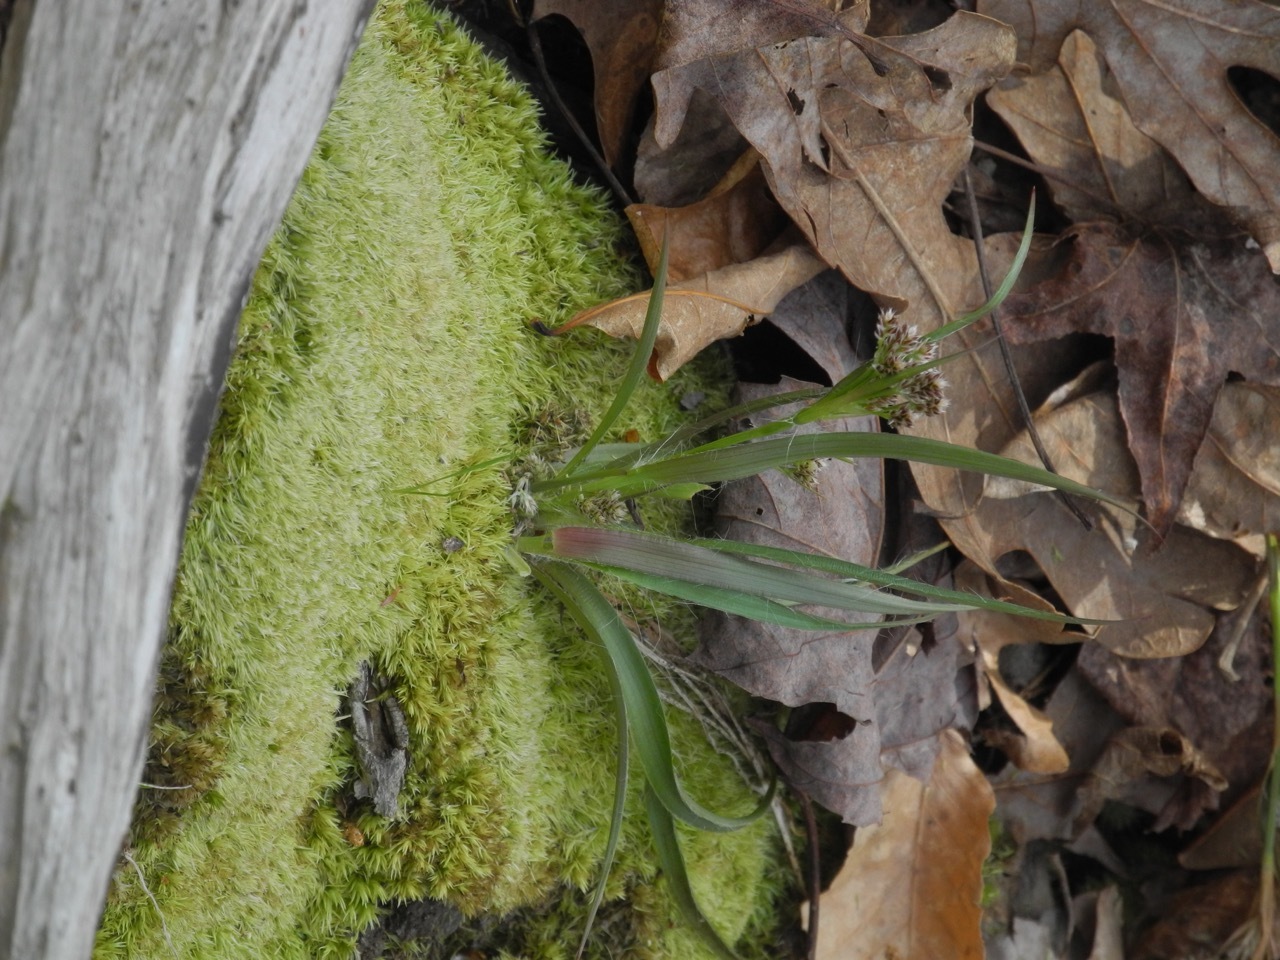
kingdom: Plantae
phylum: Tracheophyta
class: Liliopsida
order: Poales
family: Juncaceae
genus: Luzula
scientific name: Luzula echinata
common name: Hedgehog woodrush
